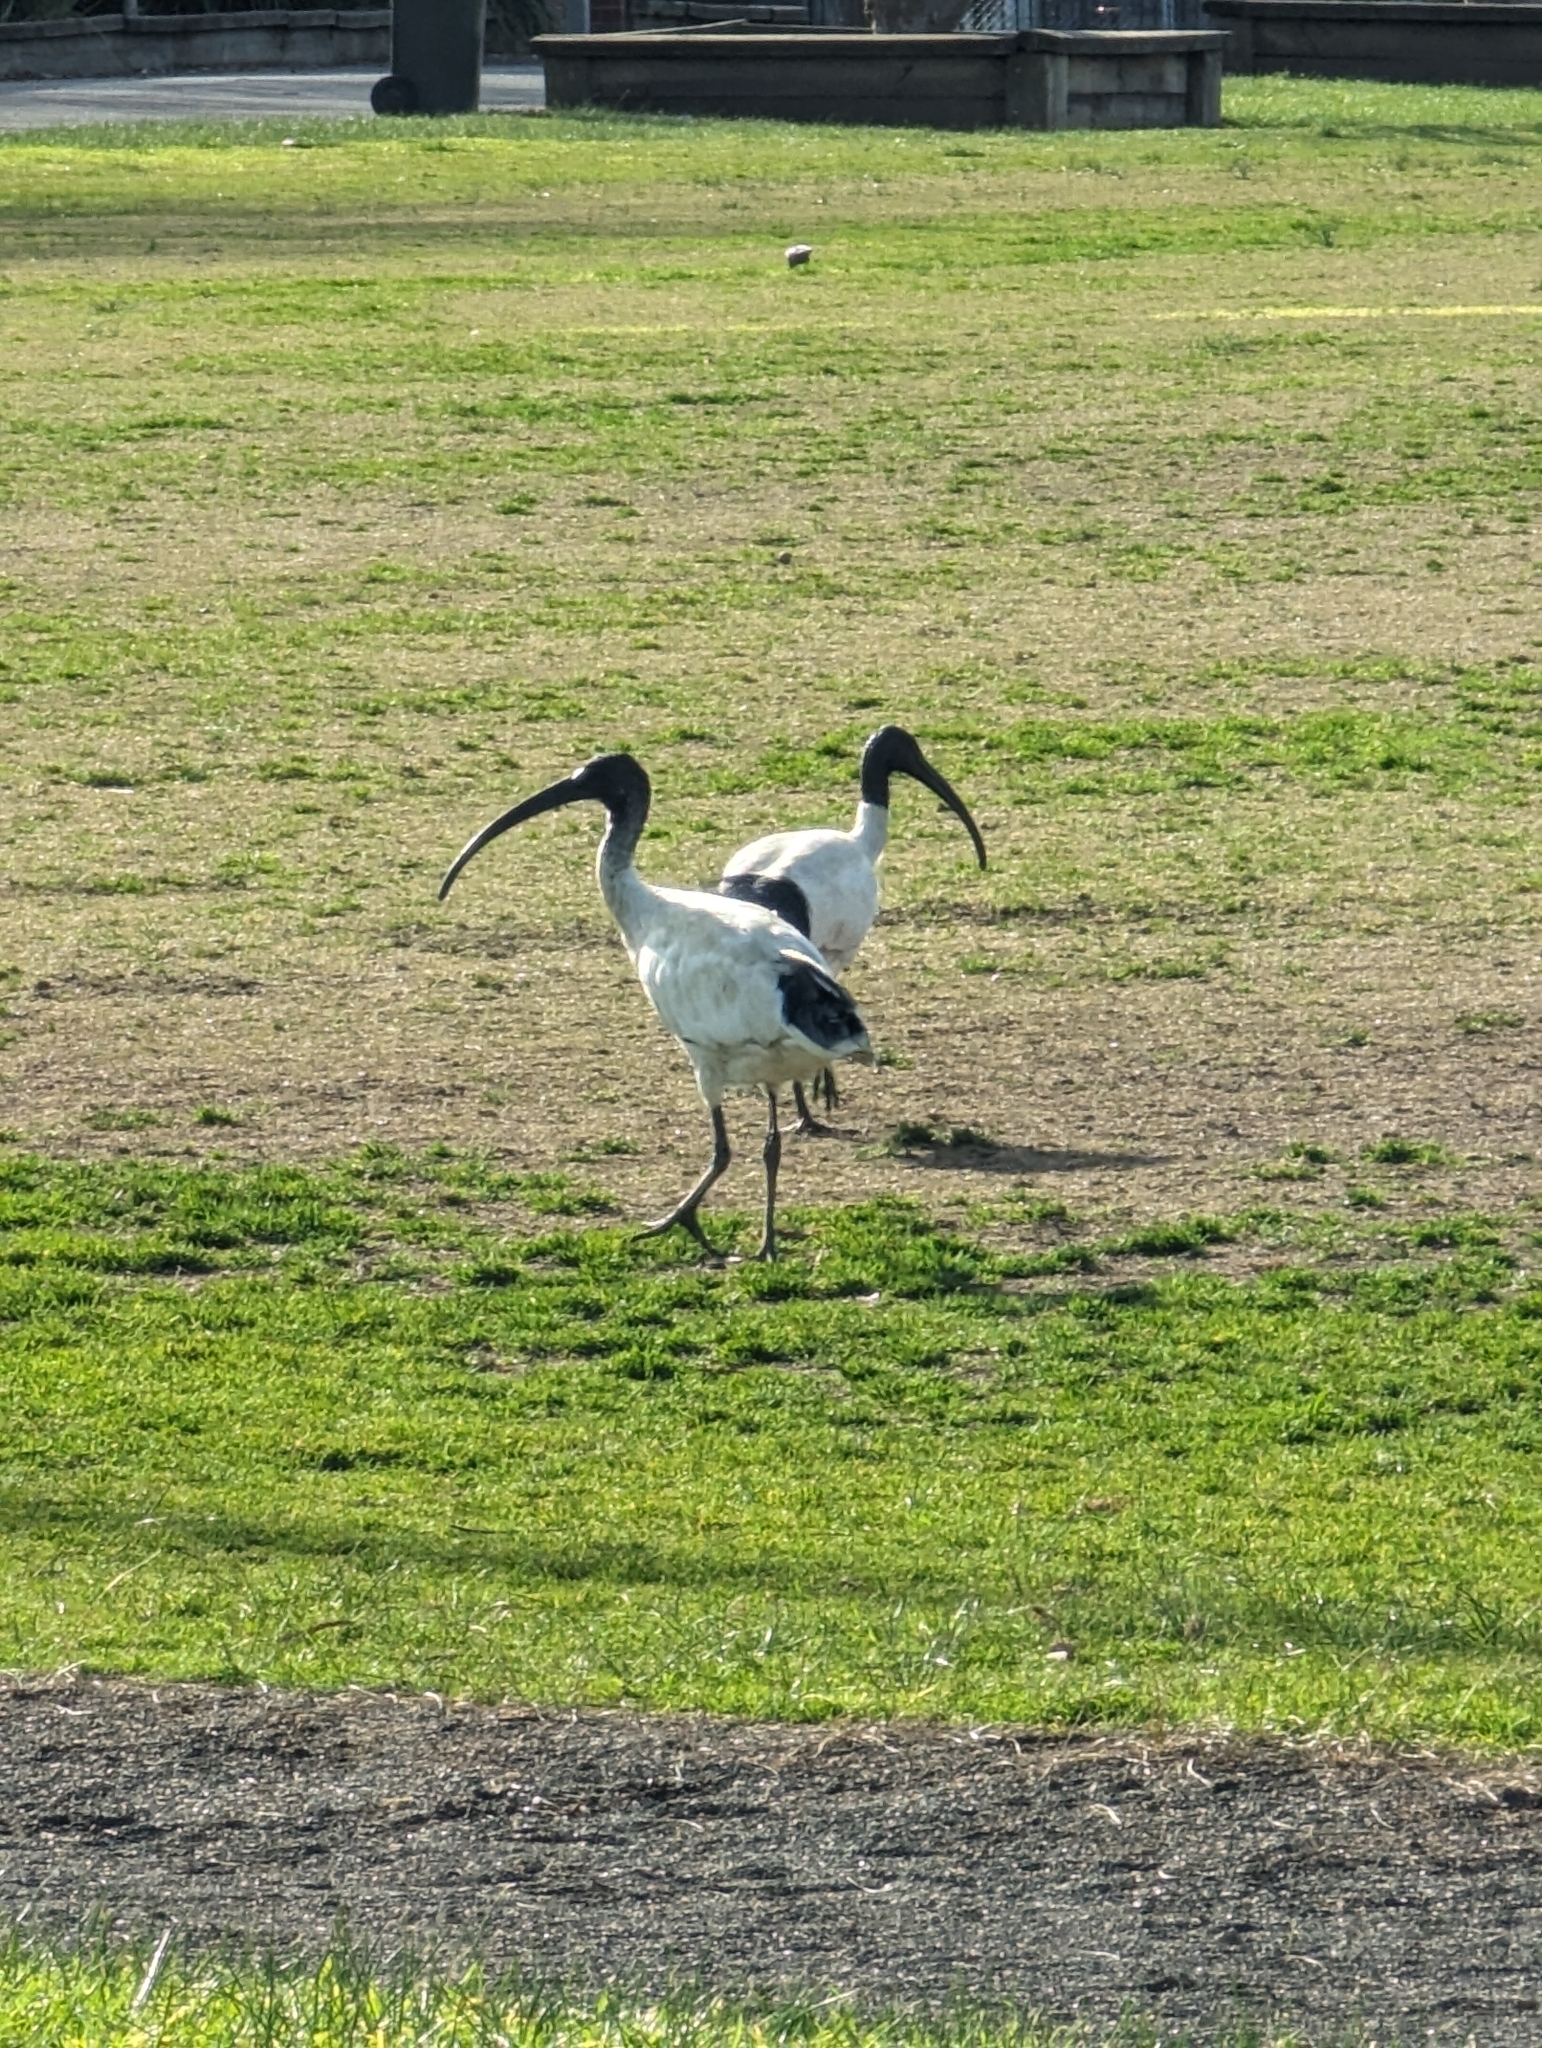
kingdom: Animalia
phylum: Chordata
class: Aves
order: Pelecaniformes
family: Threskiornithidae
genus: Threskiornis
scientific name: Threskiornis molucca
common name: Australian white ibis
